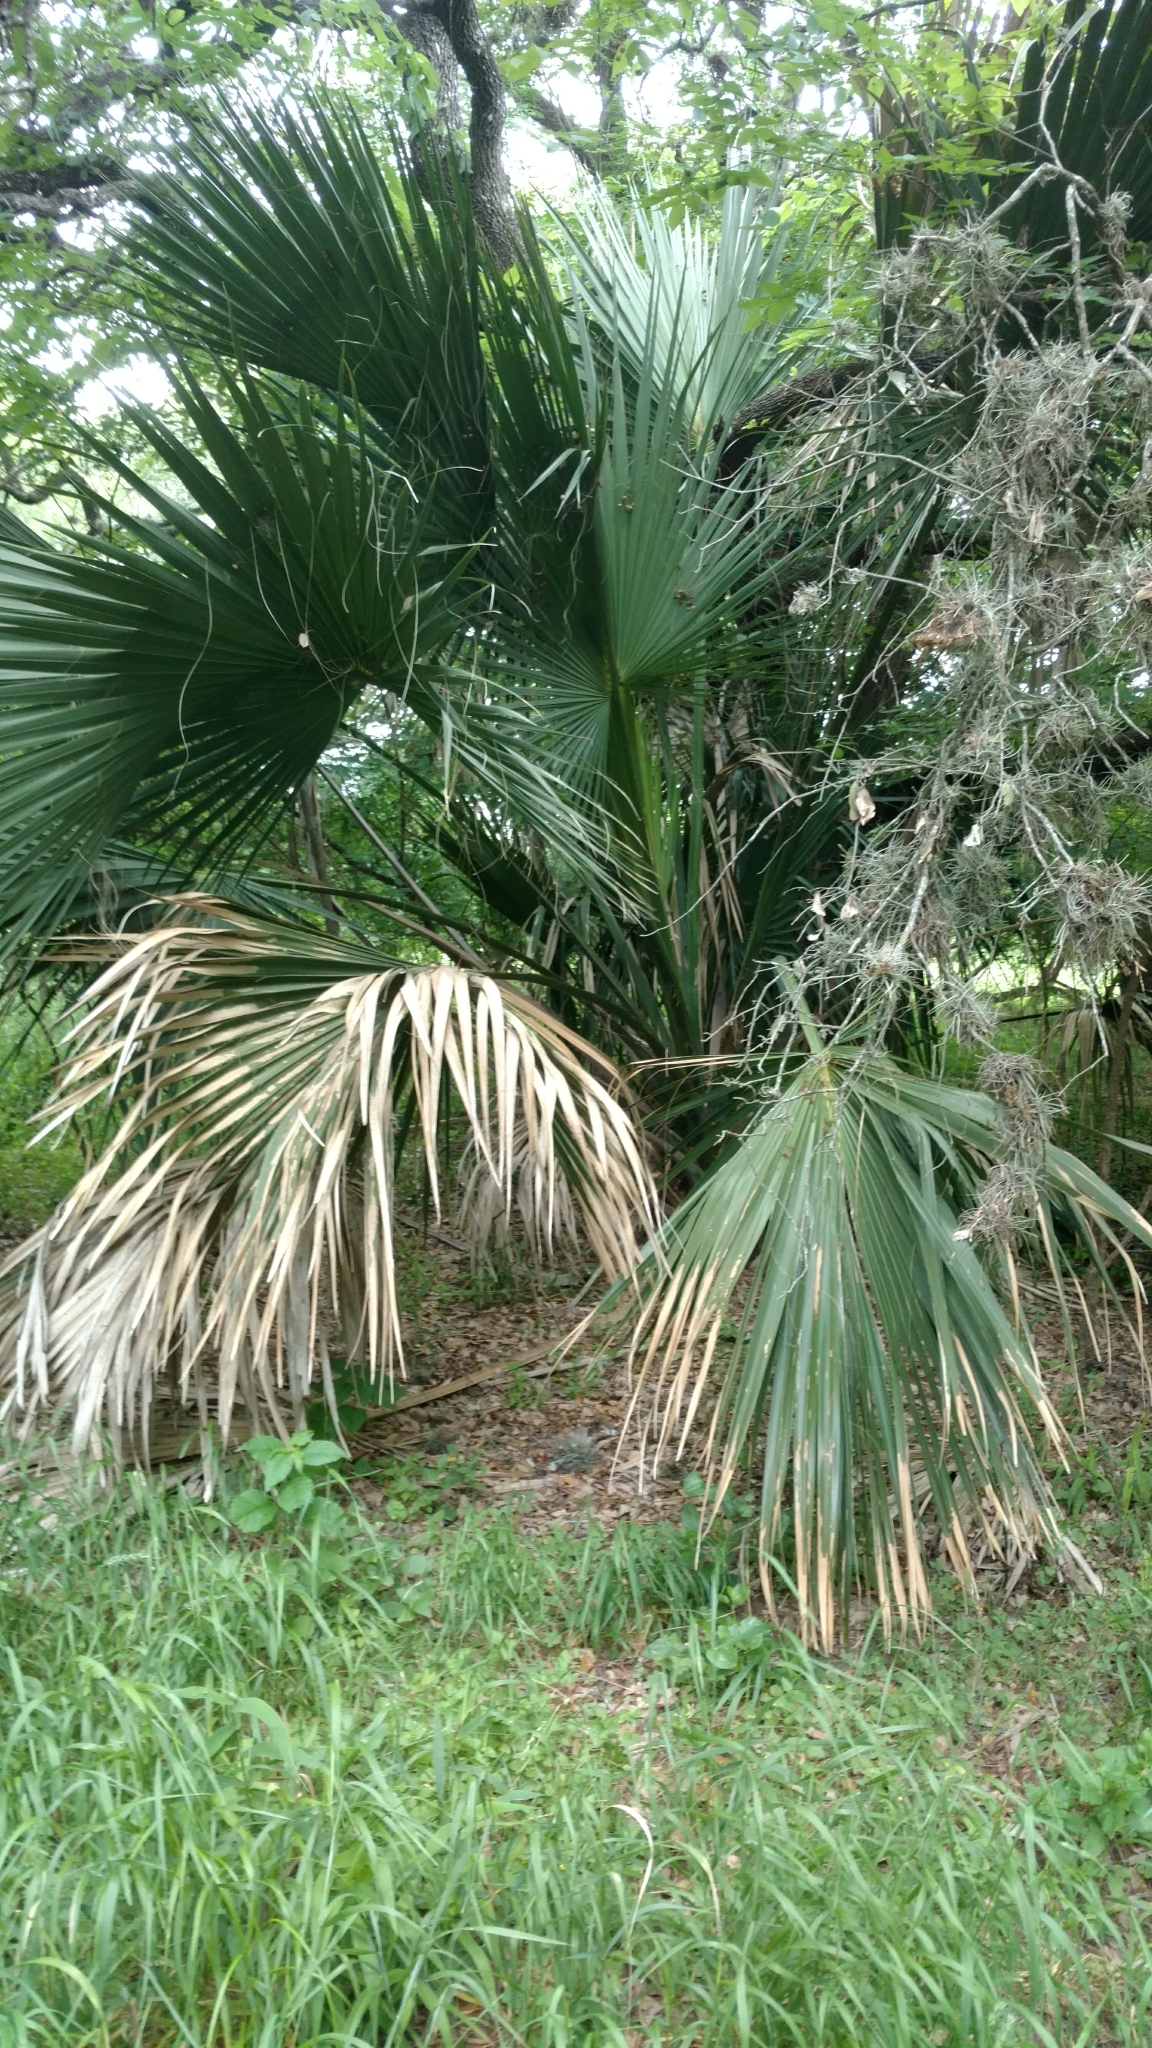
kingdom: Plantae
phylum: Tracheophyta
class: Liliopsida
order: Arecales
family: Arecaceae
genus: Sabal
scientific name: Sabal mexicana
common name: Texas palmetto
